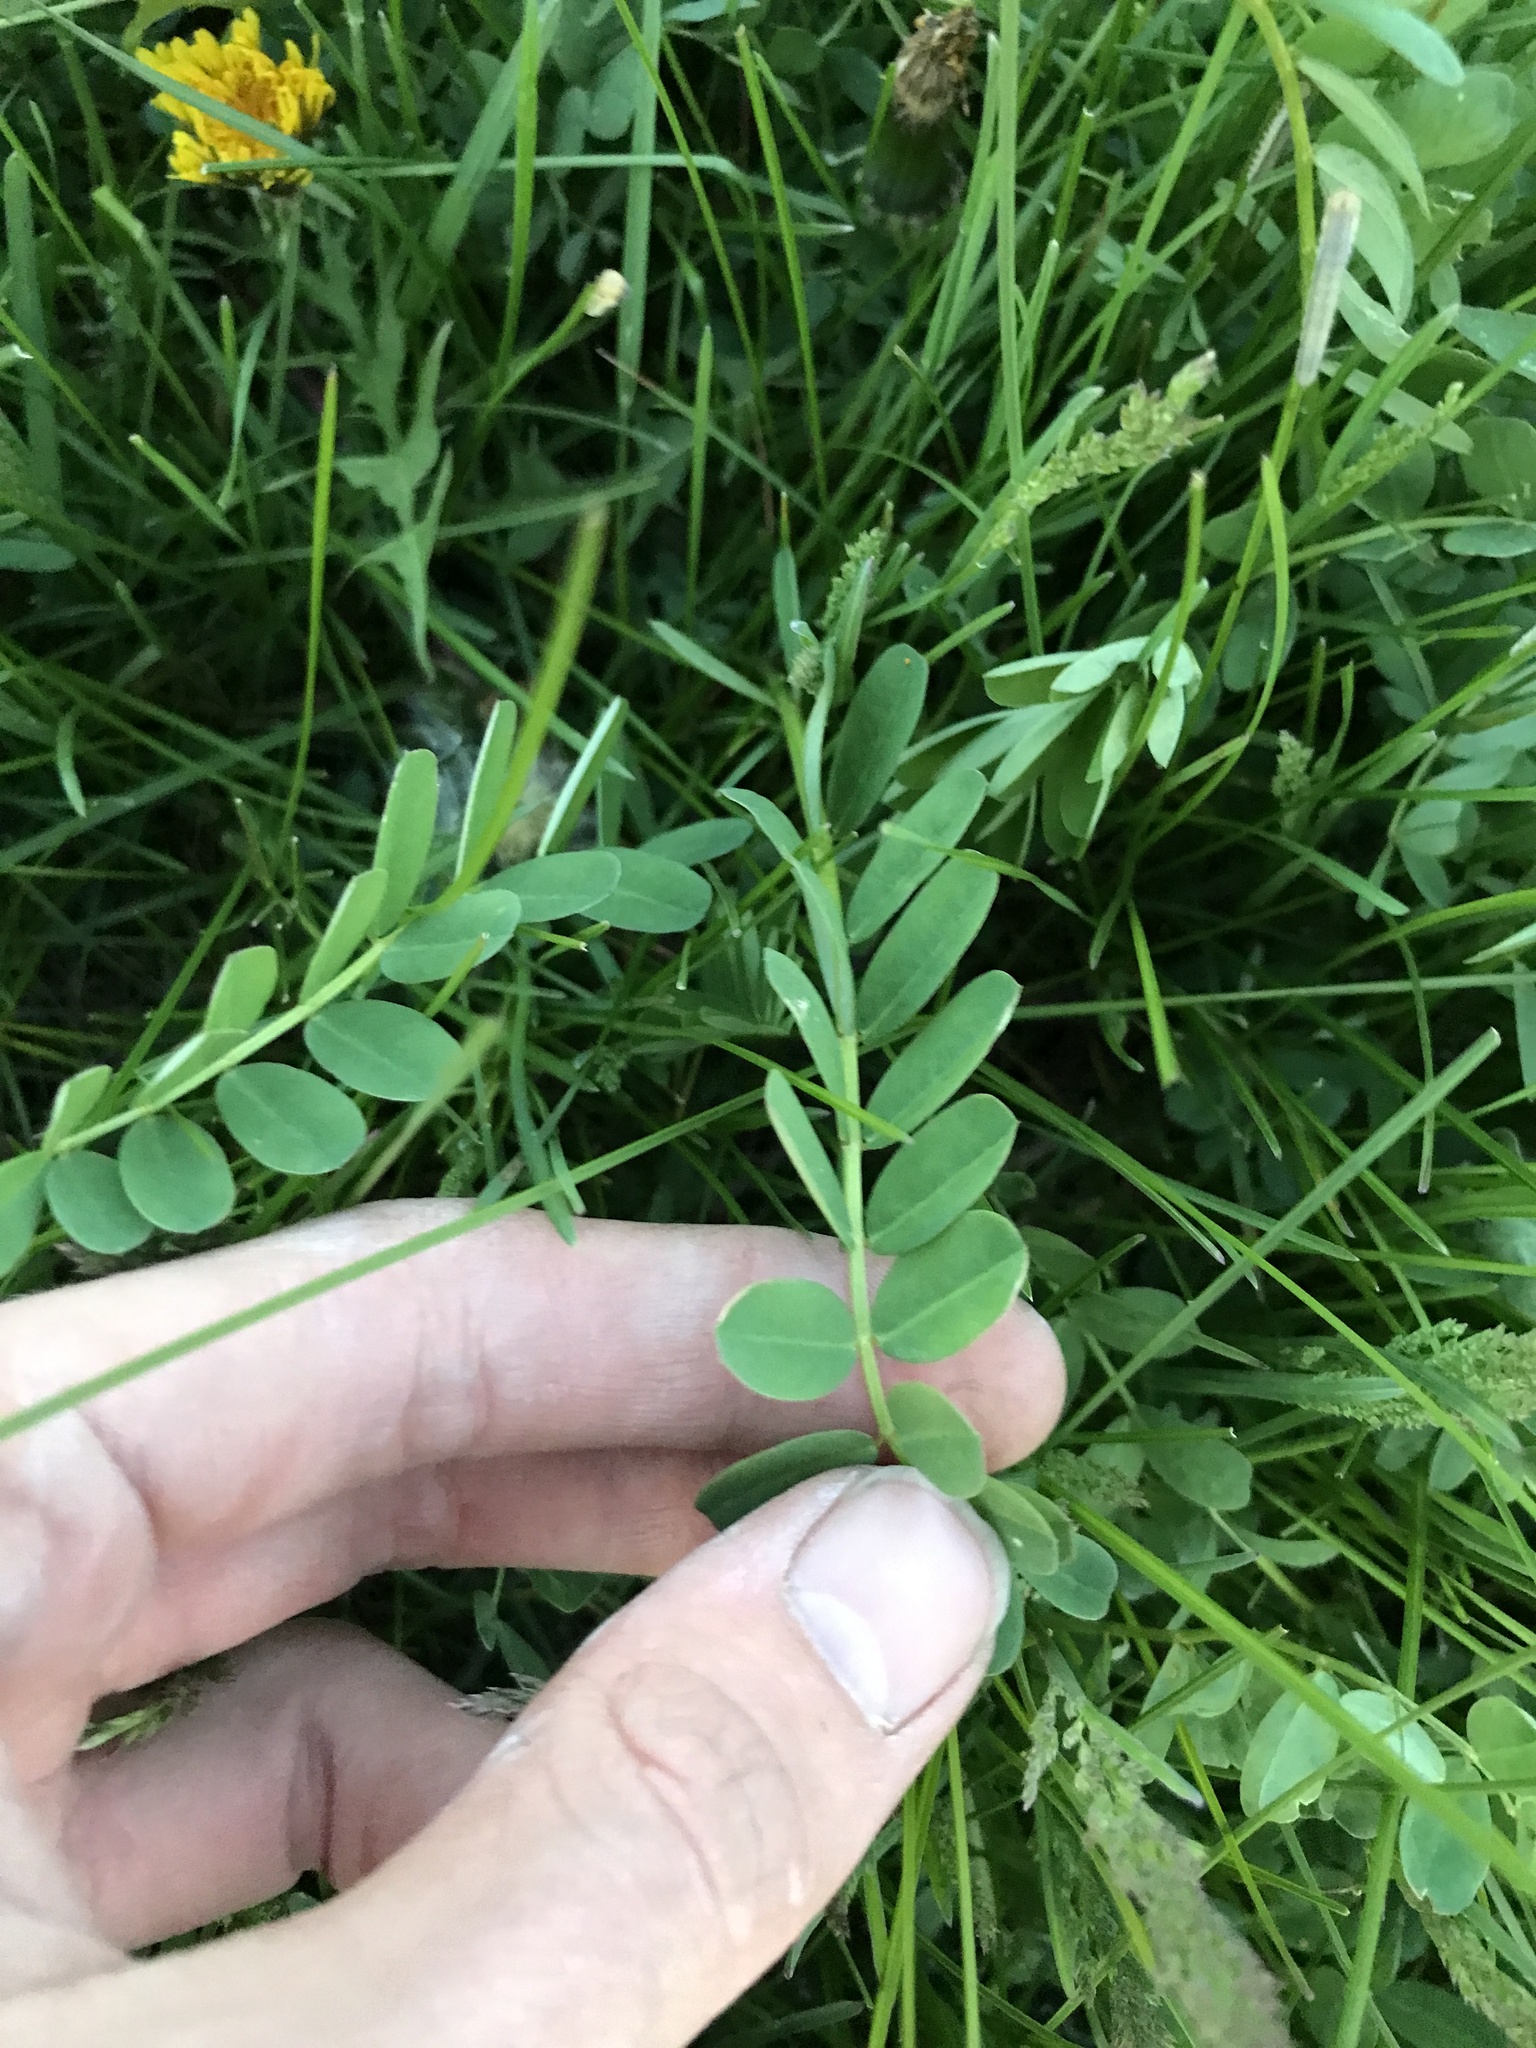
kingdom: Plantae
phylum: Tracheophyta
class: Magnoliopsida
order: Fabales
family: Fabaceae
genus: Coronilla
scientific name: Coronilla varia
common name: Crownvetch
